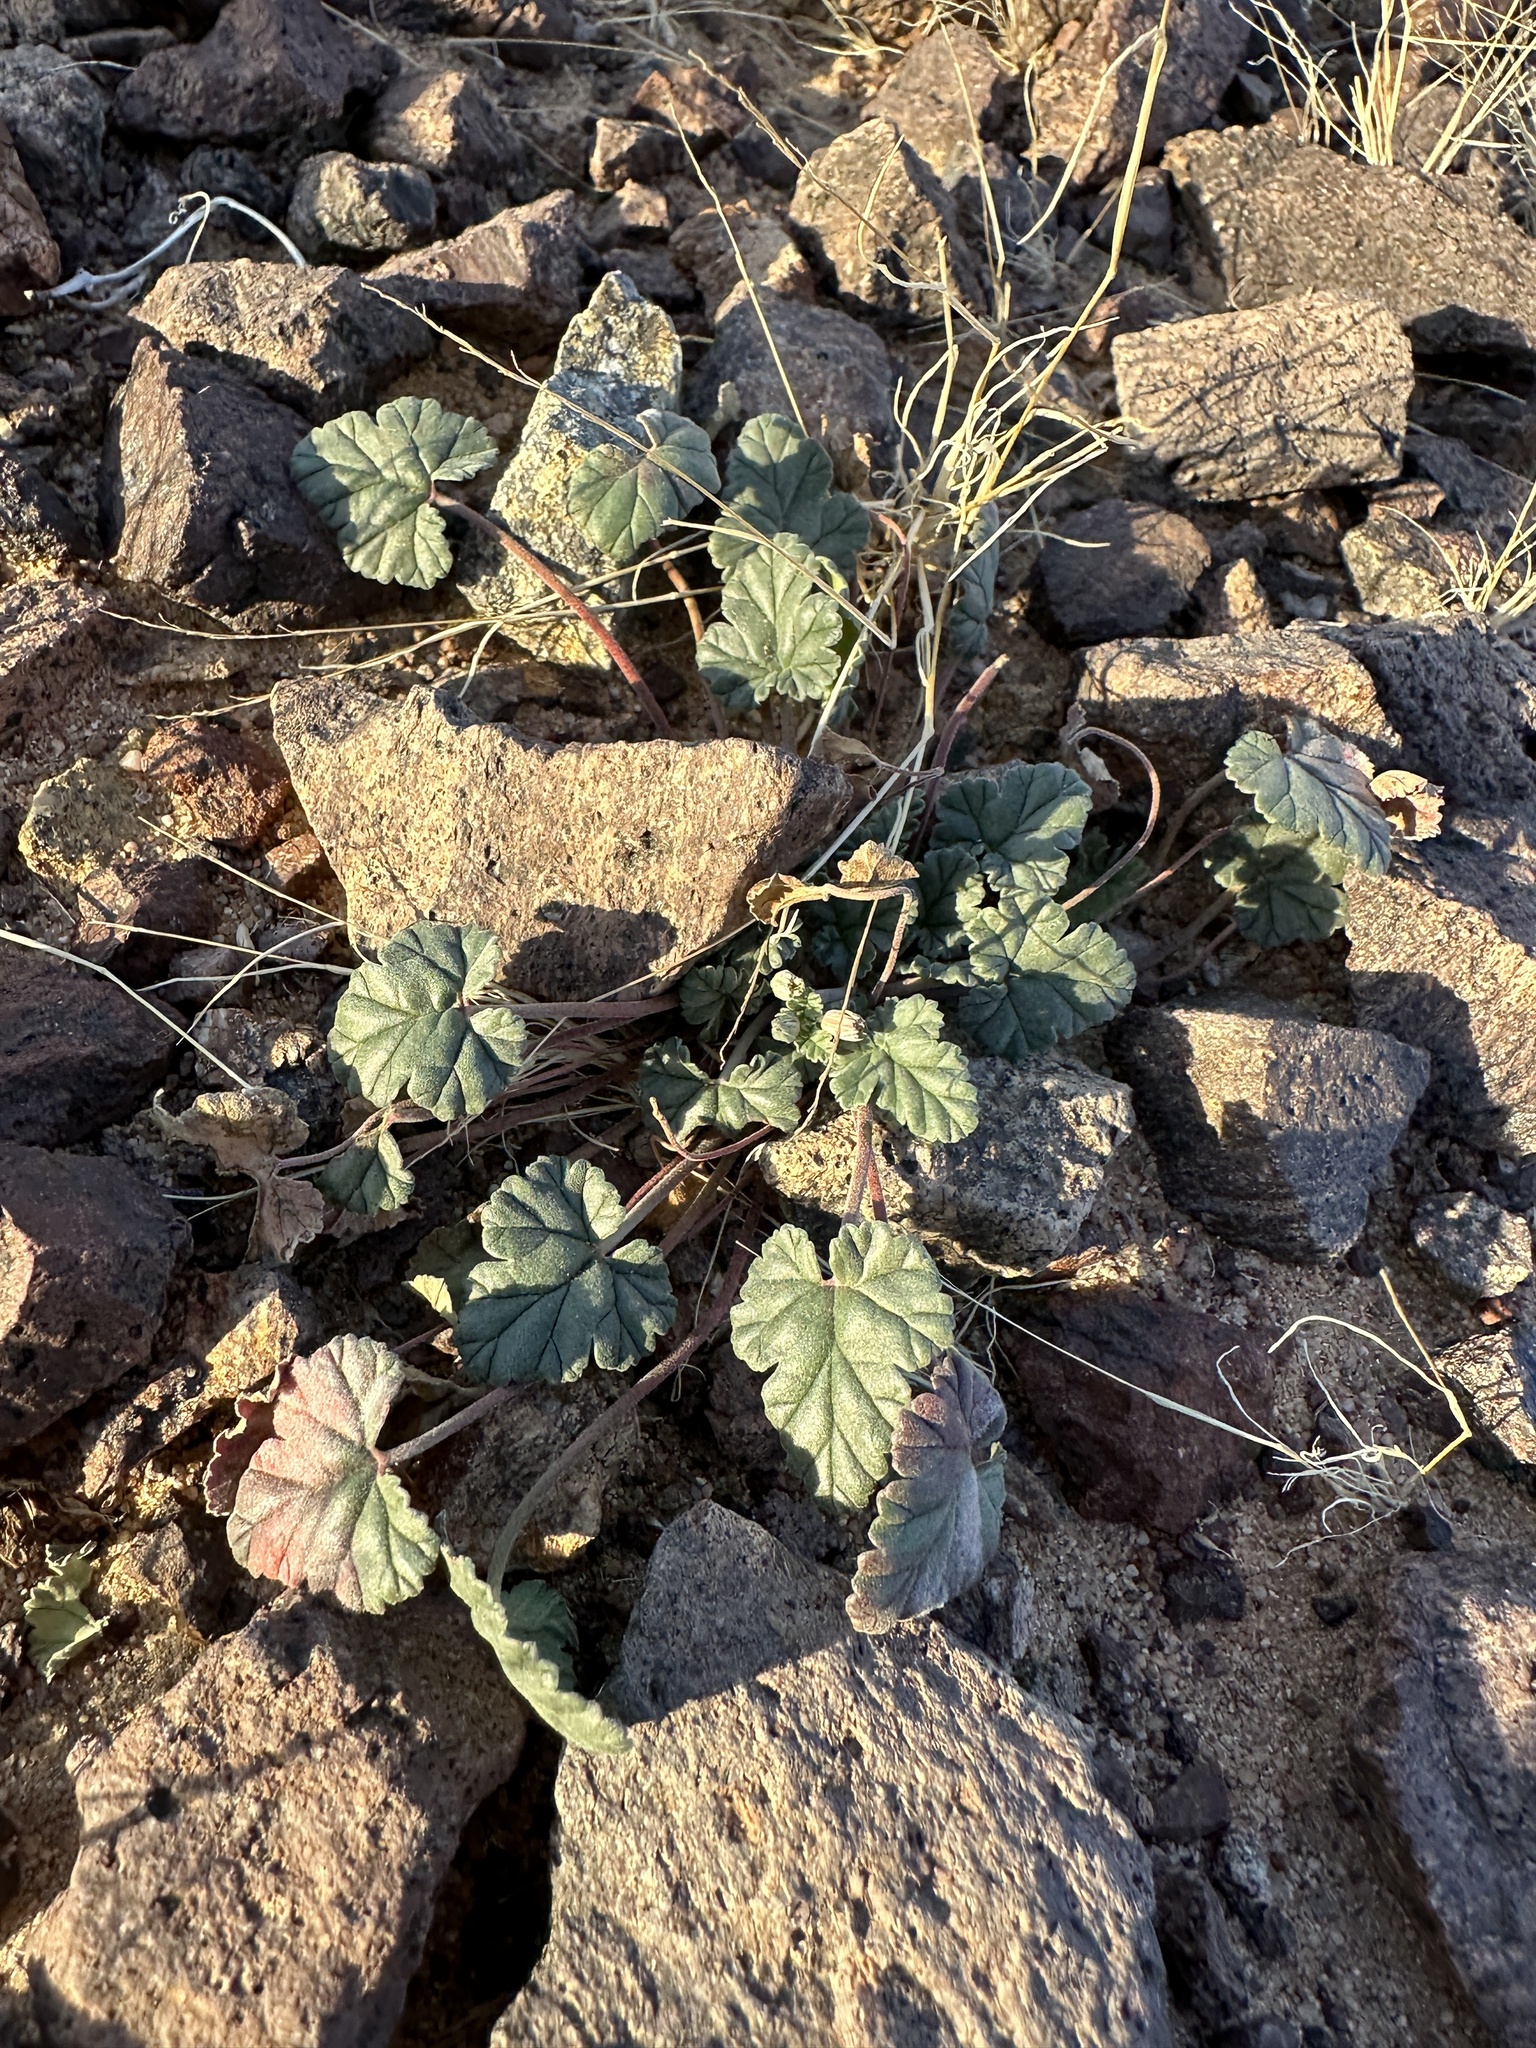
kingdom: Plantae
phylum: Tracheophyta
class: Magnoliopsida
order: Geraniales
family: Geraniaceae
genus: Erodium
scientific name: Erodium texanum
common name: Texas stork's-bill
